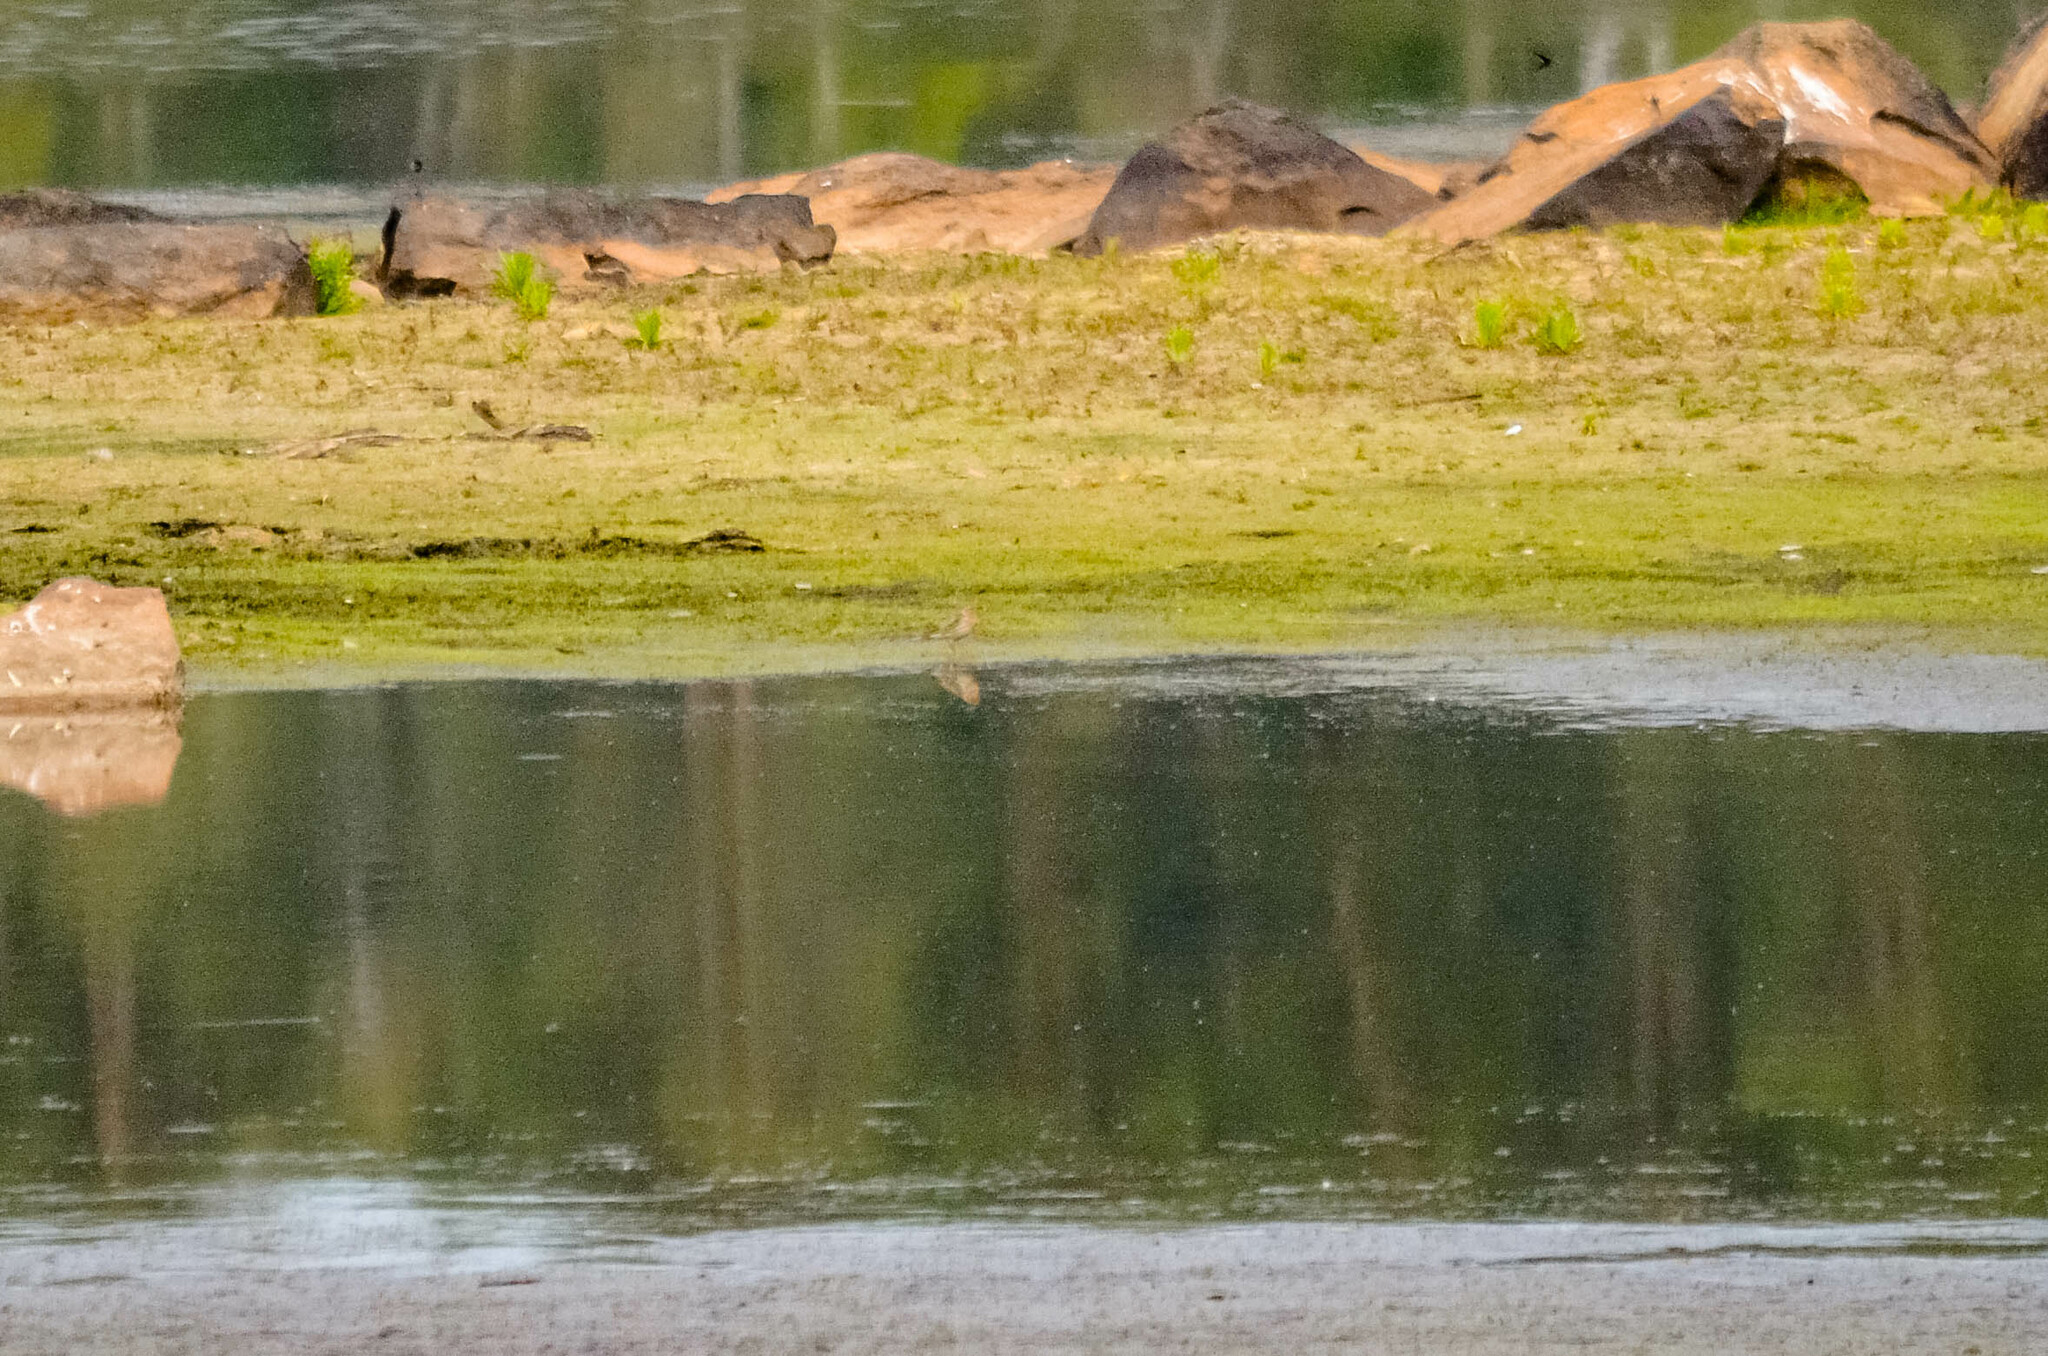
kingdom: Animalia
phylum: Chordata
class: Aves
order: Passeriformes
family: Motacillidae
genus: Anthus
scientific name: Anthus cervinus
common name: Red-throated pipit
